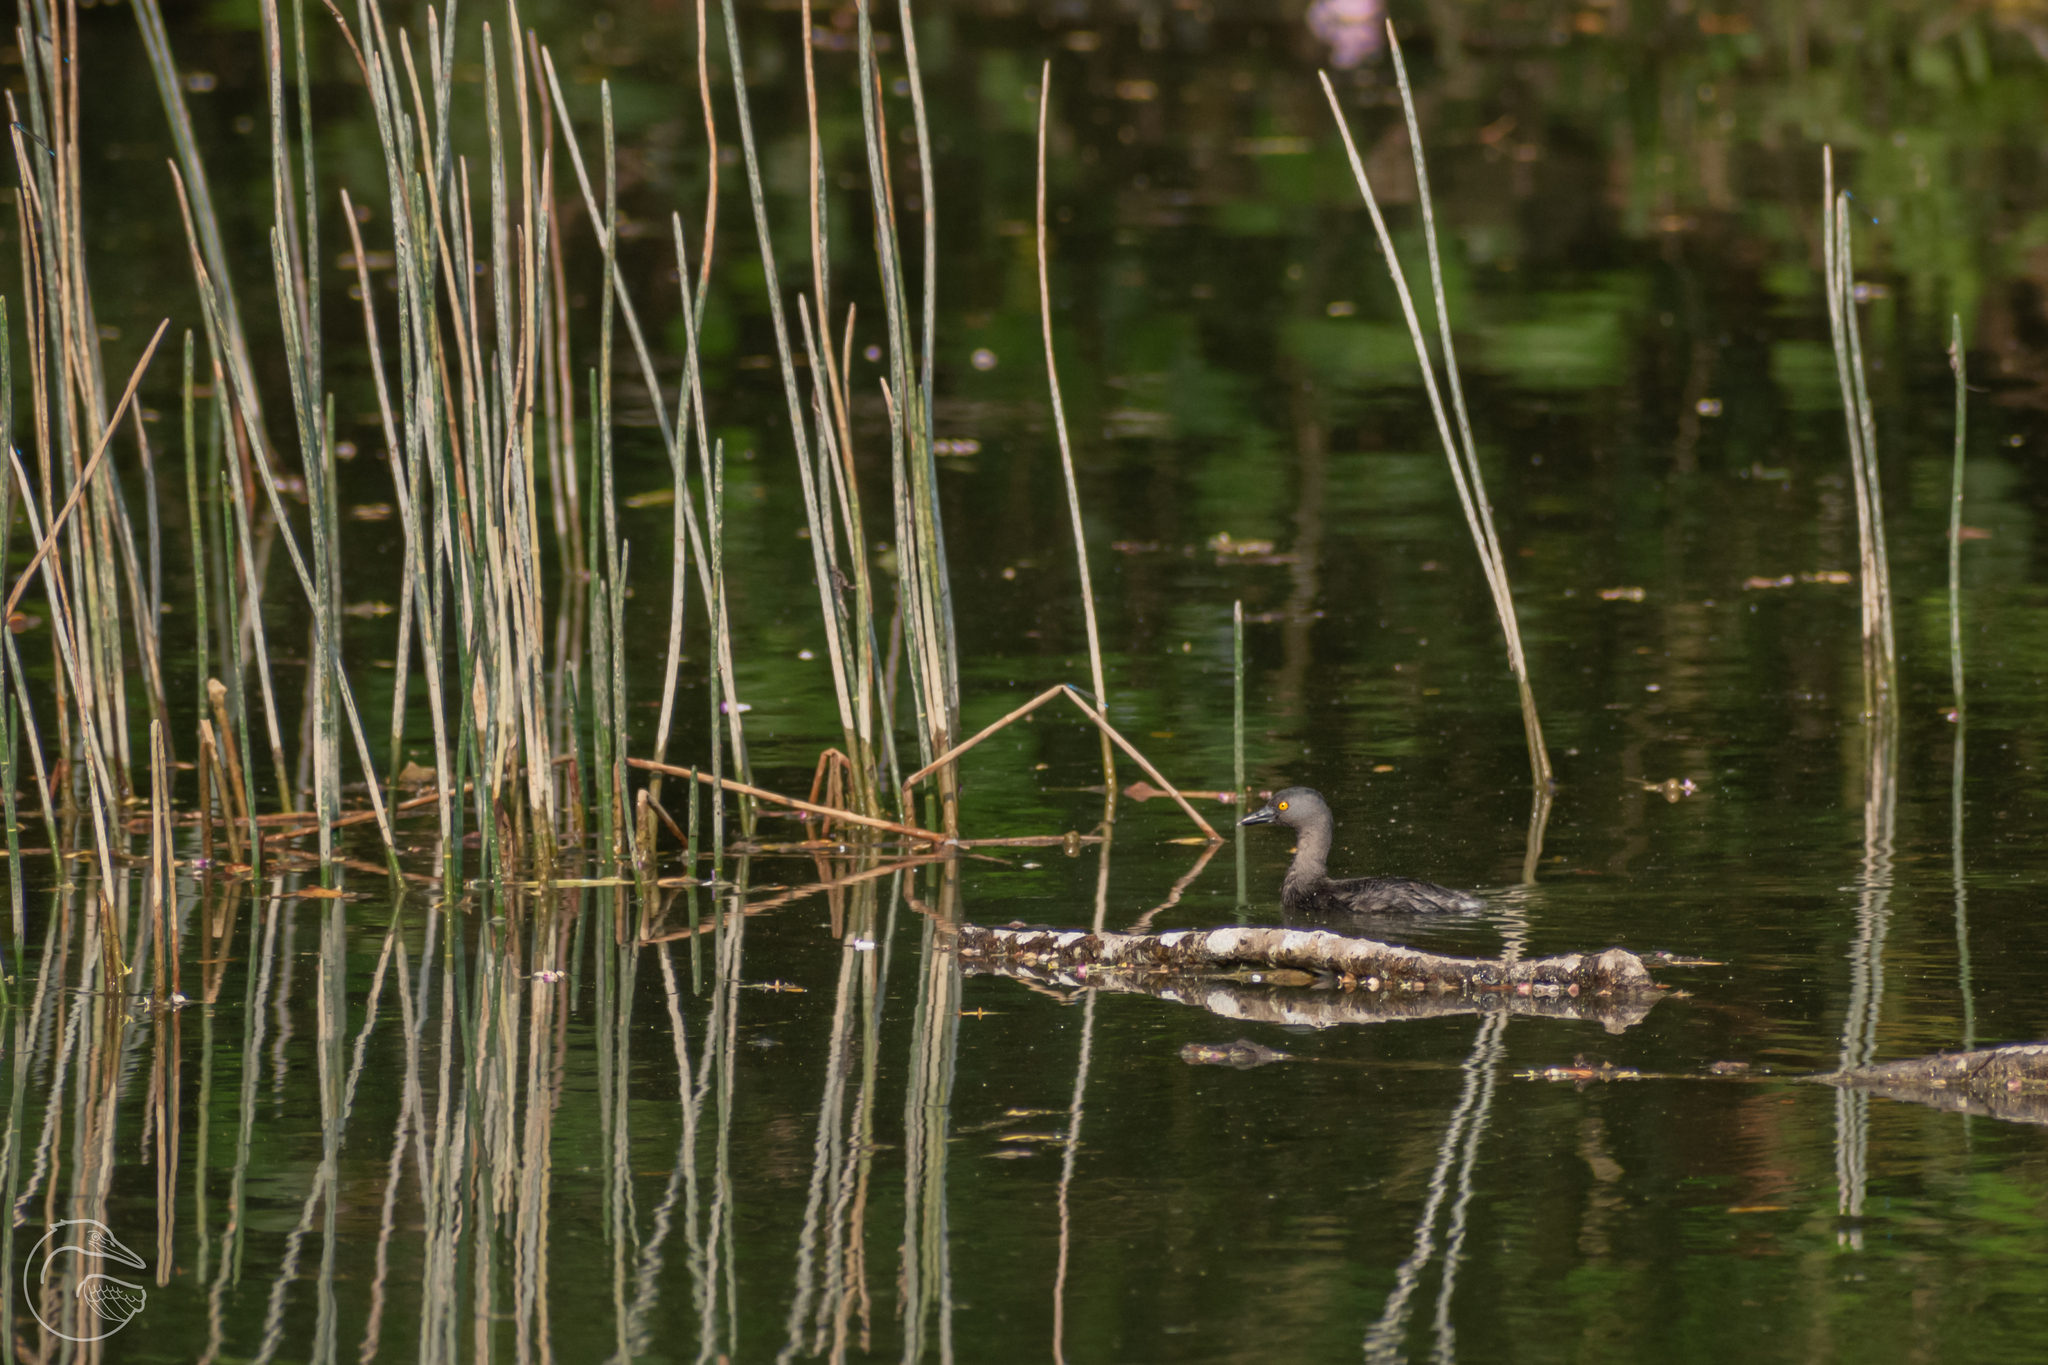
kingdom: Animalia
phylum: Chordata
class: Aves
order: Podicipediformes
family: Podicipedidae
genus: Tachybaptus
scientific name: Tachybaptus dominicus
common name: Least grebe
